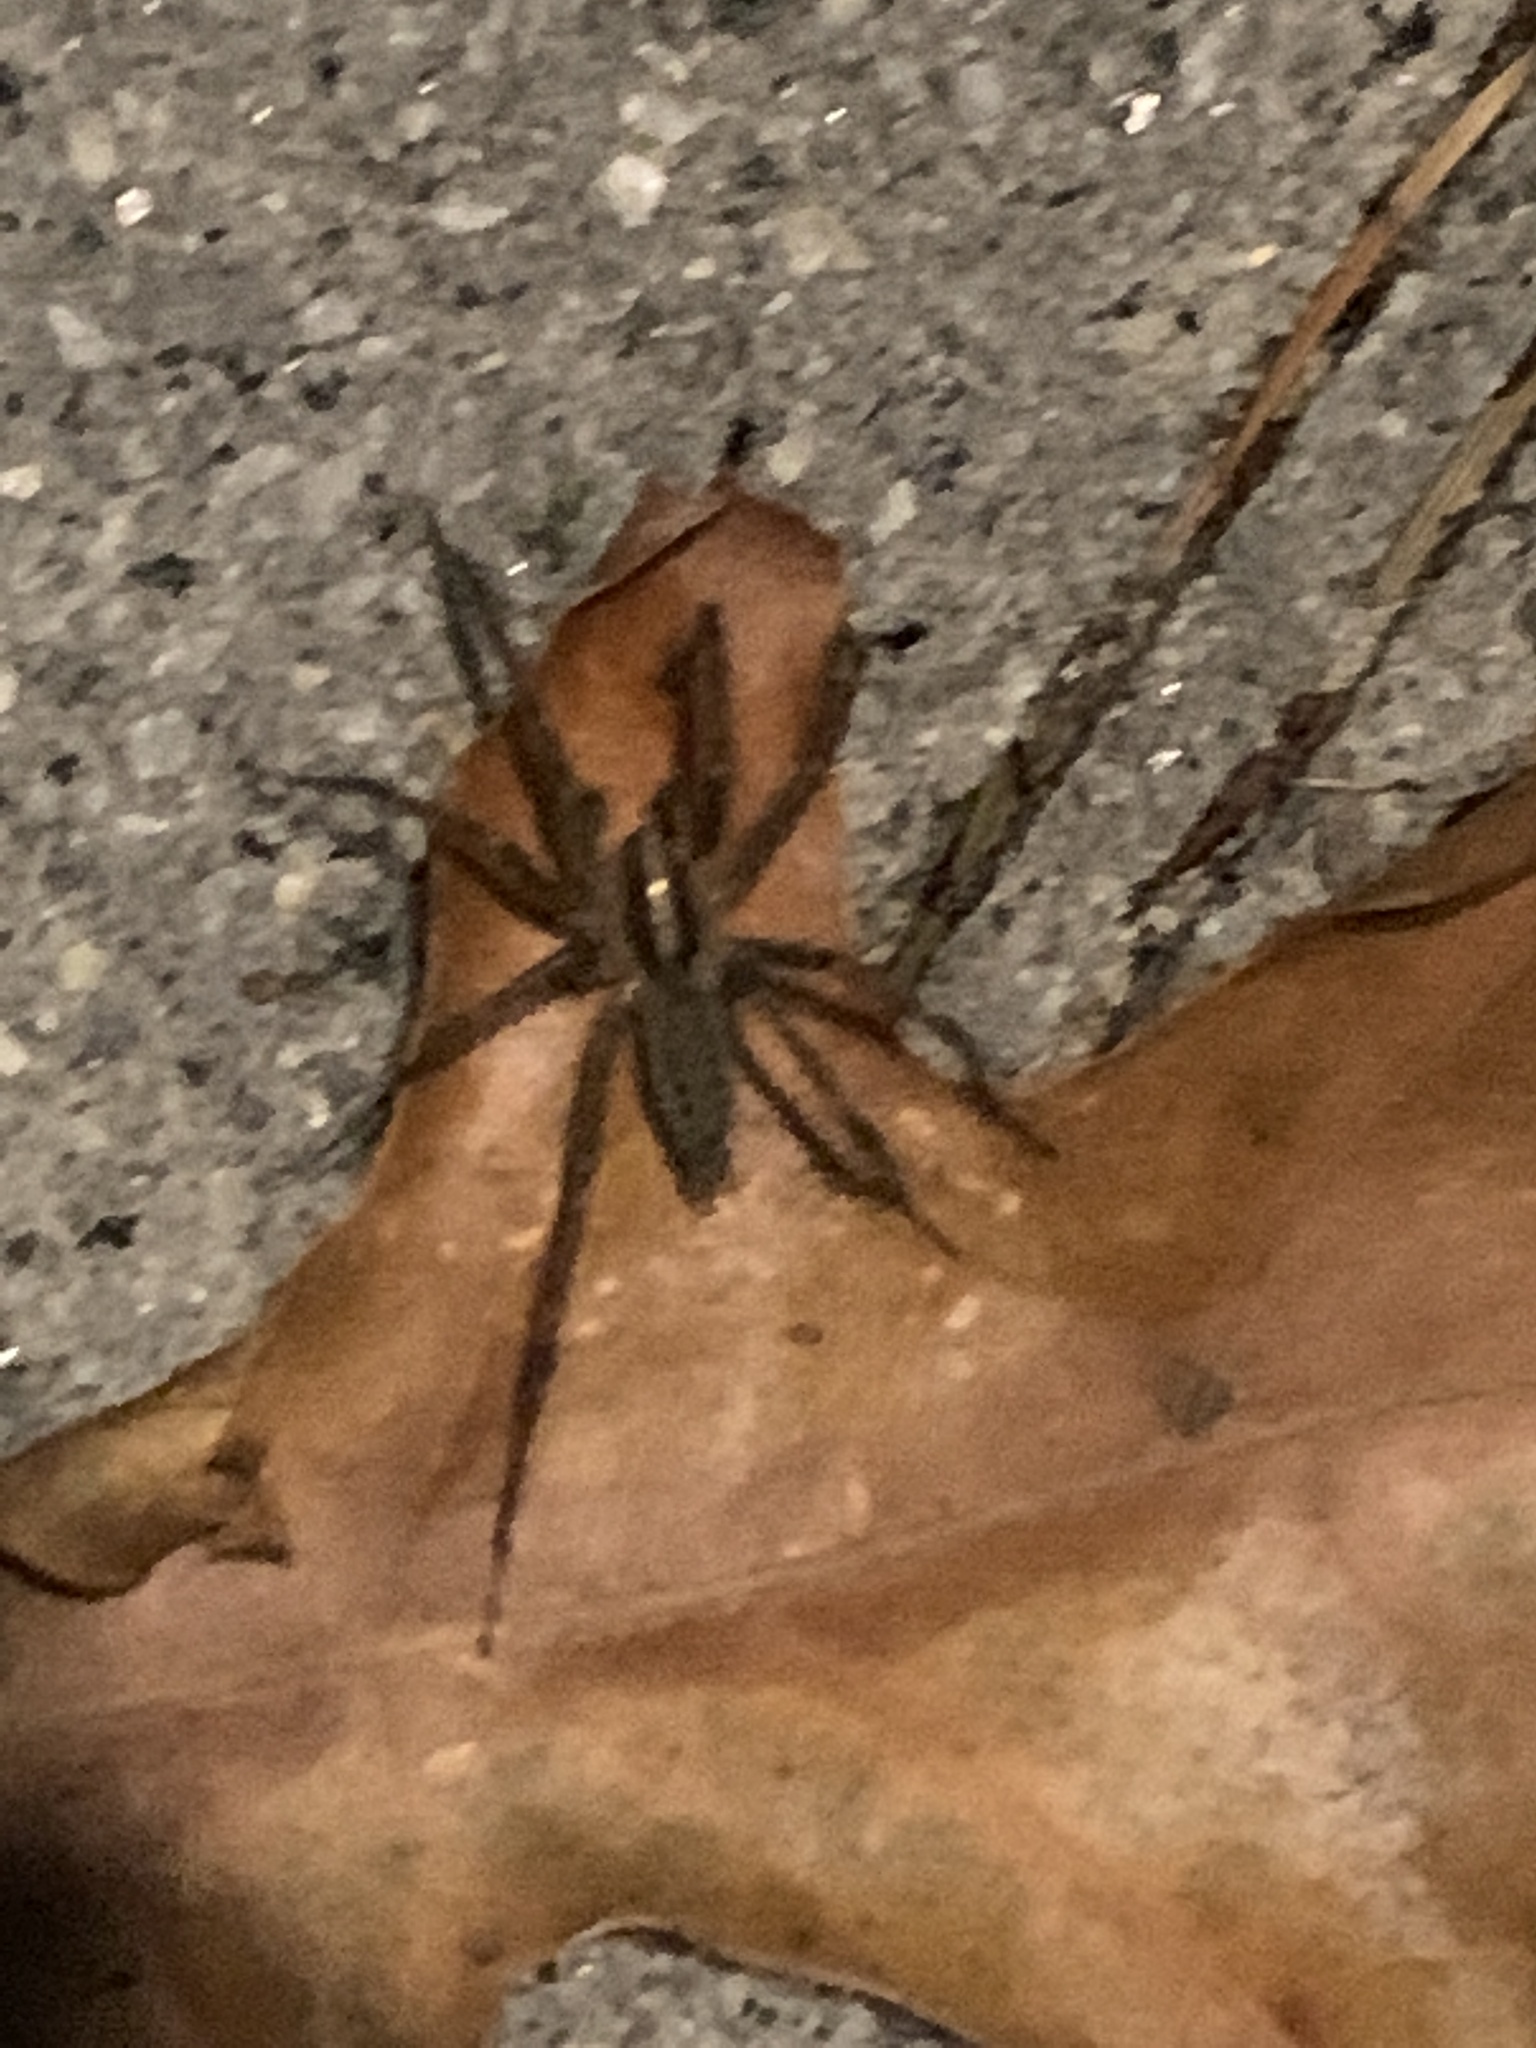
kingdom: Animalia
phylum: Arthropoda
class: Arachnida
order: Araneae
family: Agelenidae
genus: Agelenopsis
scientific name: Agelenopsis
